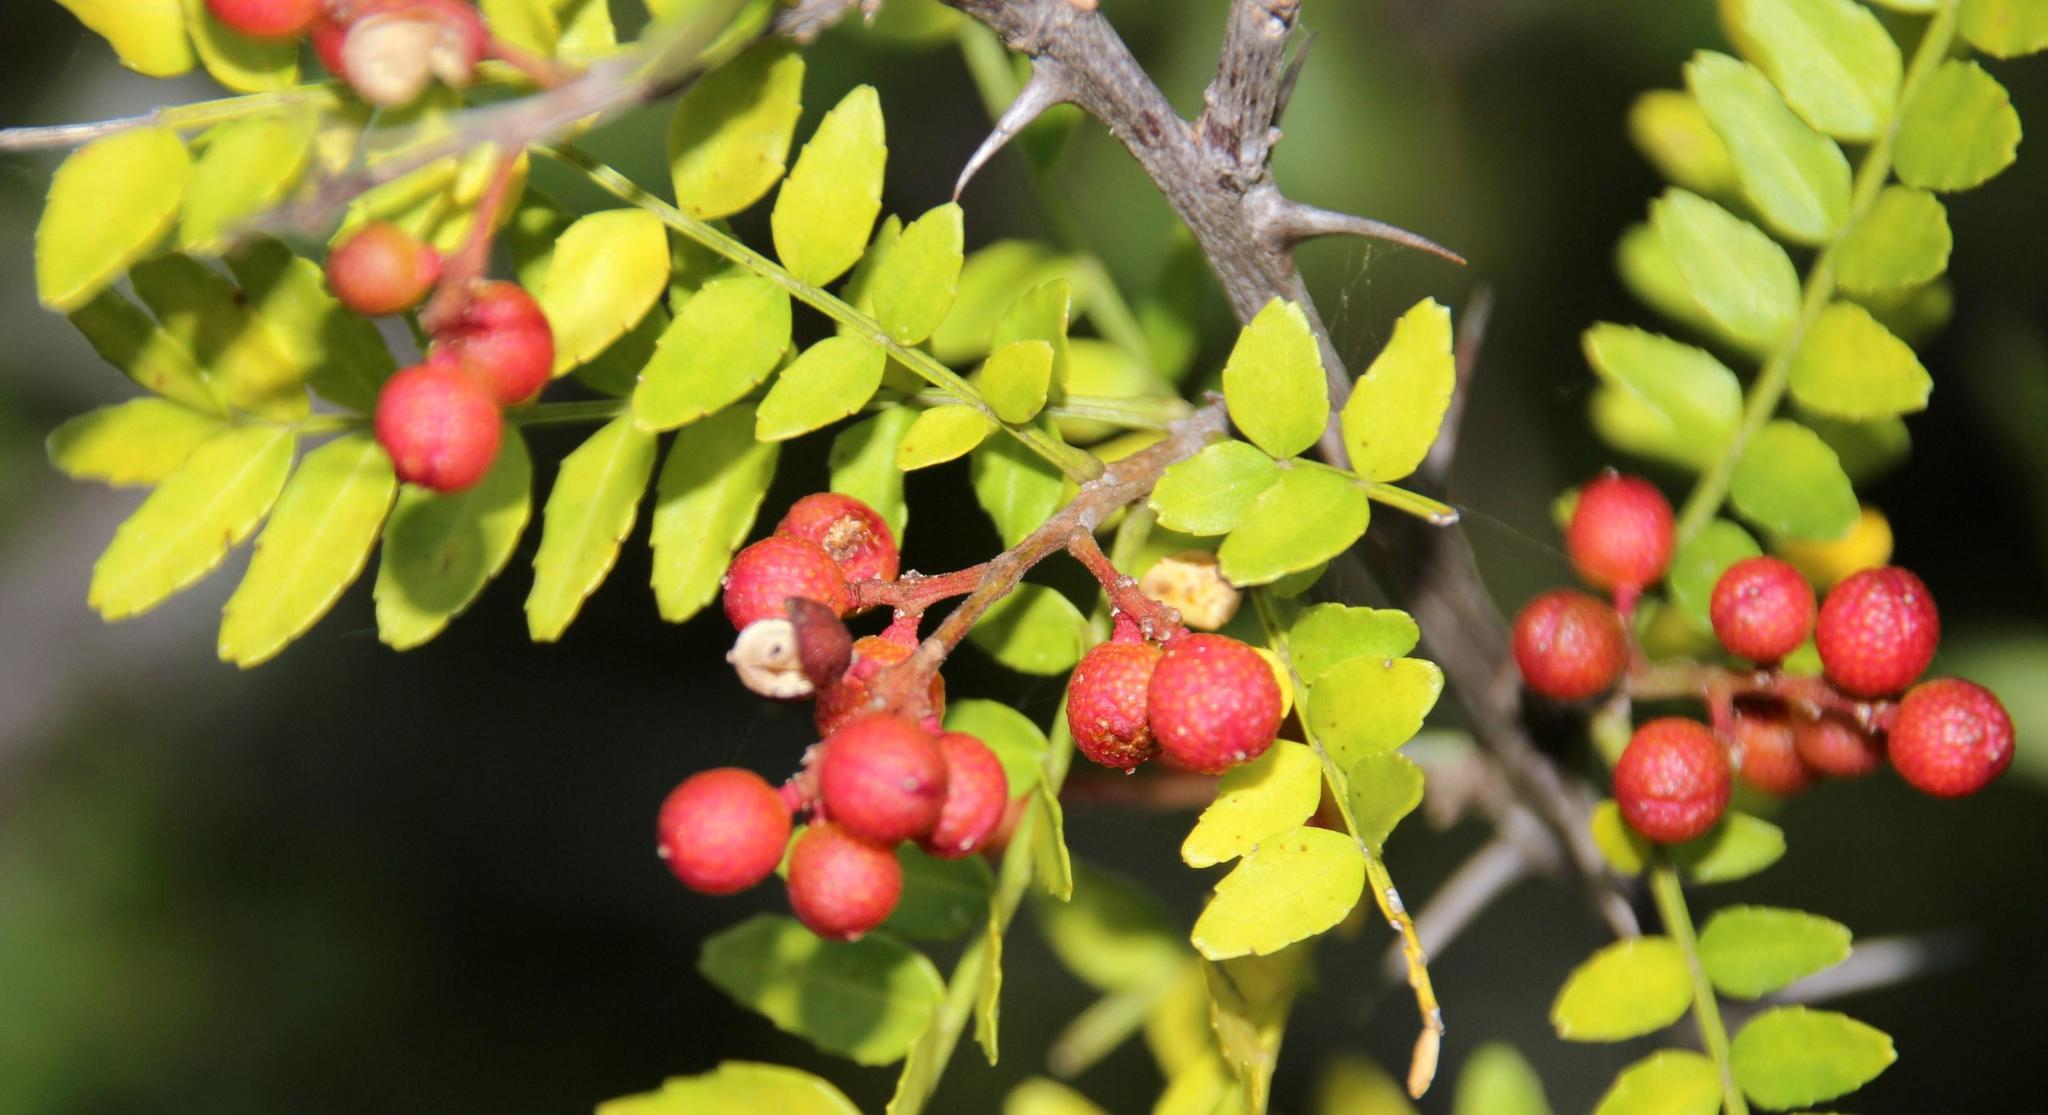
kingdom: Plantae
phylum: Tracheophyta
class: Magnoliopsida
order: Sapindales
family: Rutaceae
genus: Zanthoxylum
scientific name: Zanthoxylum capense
